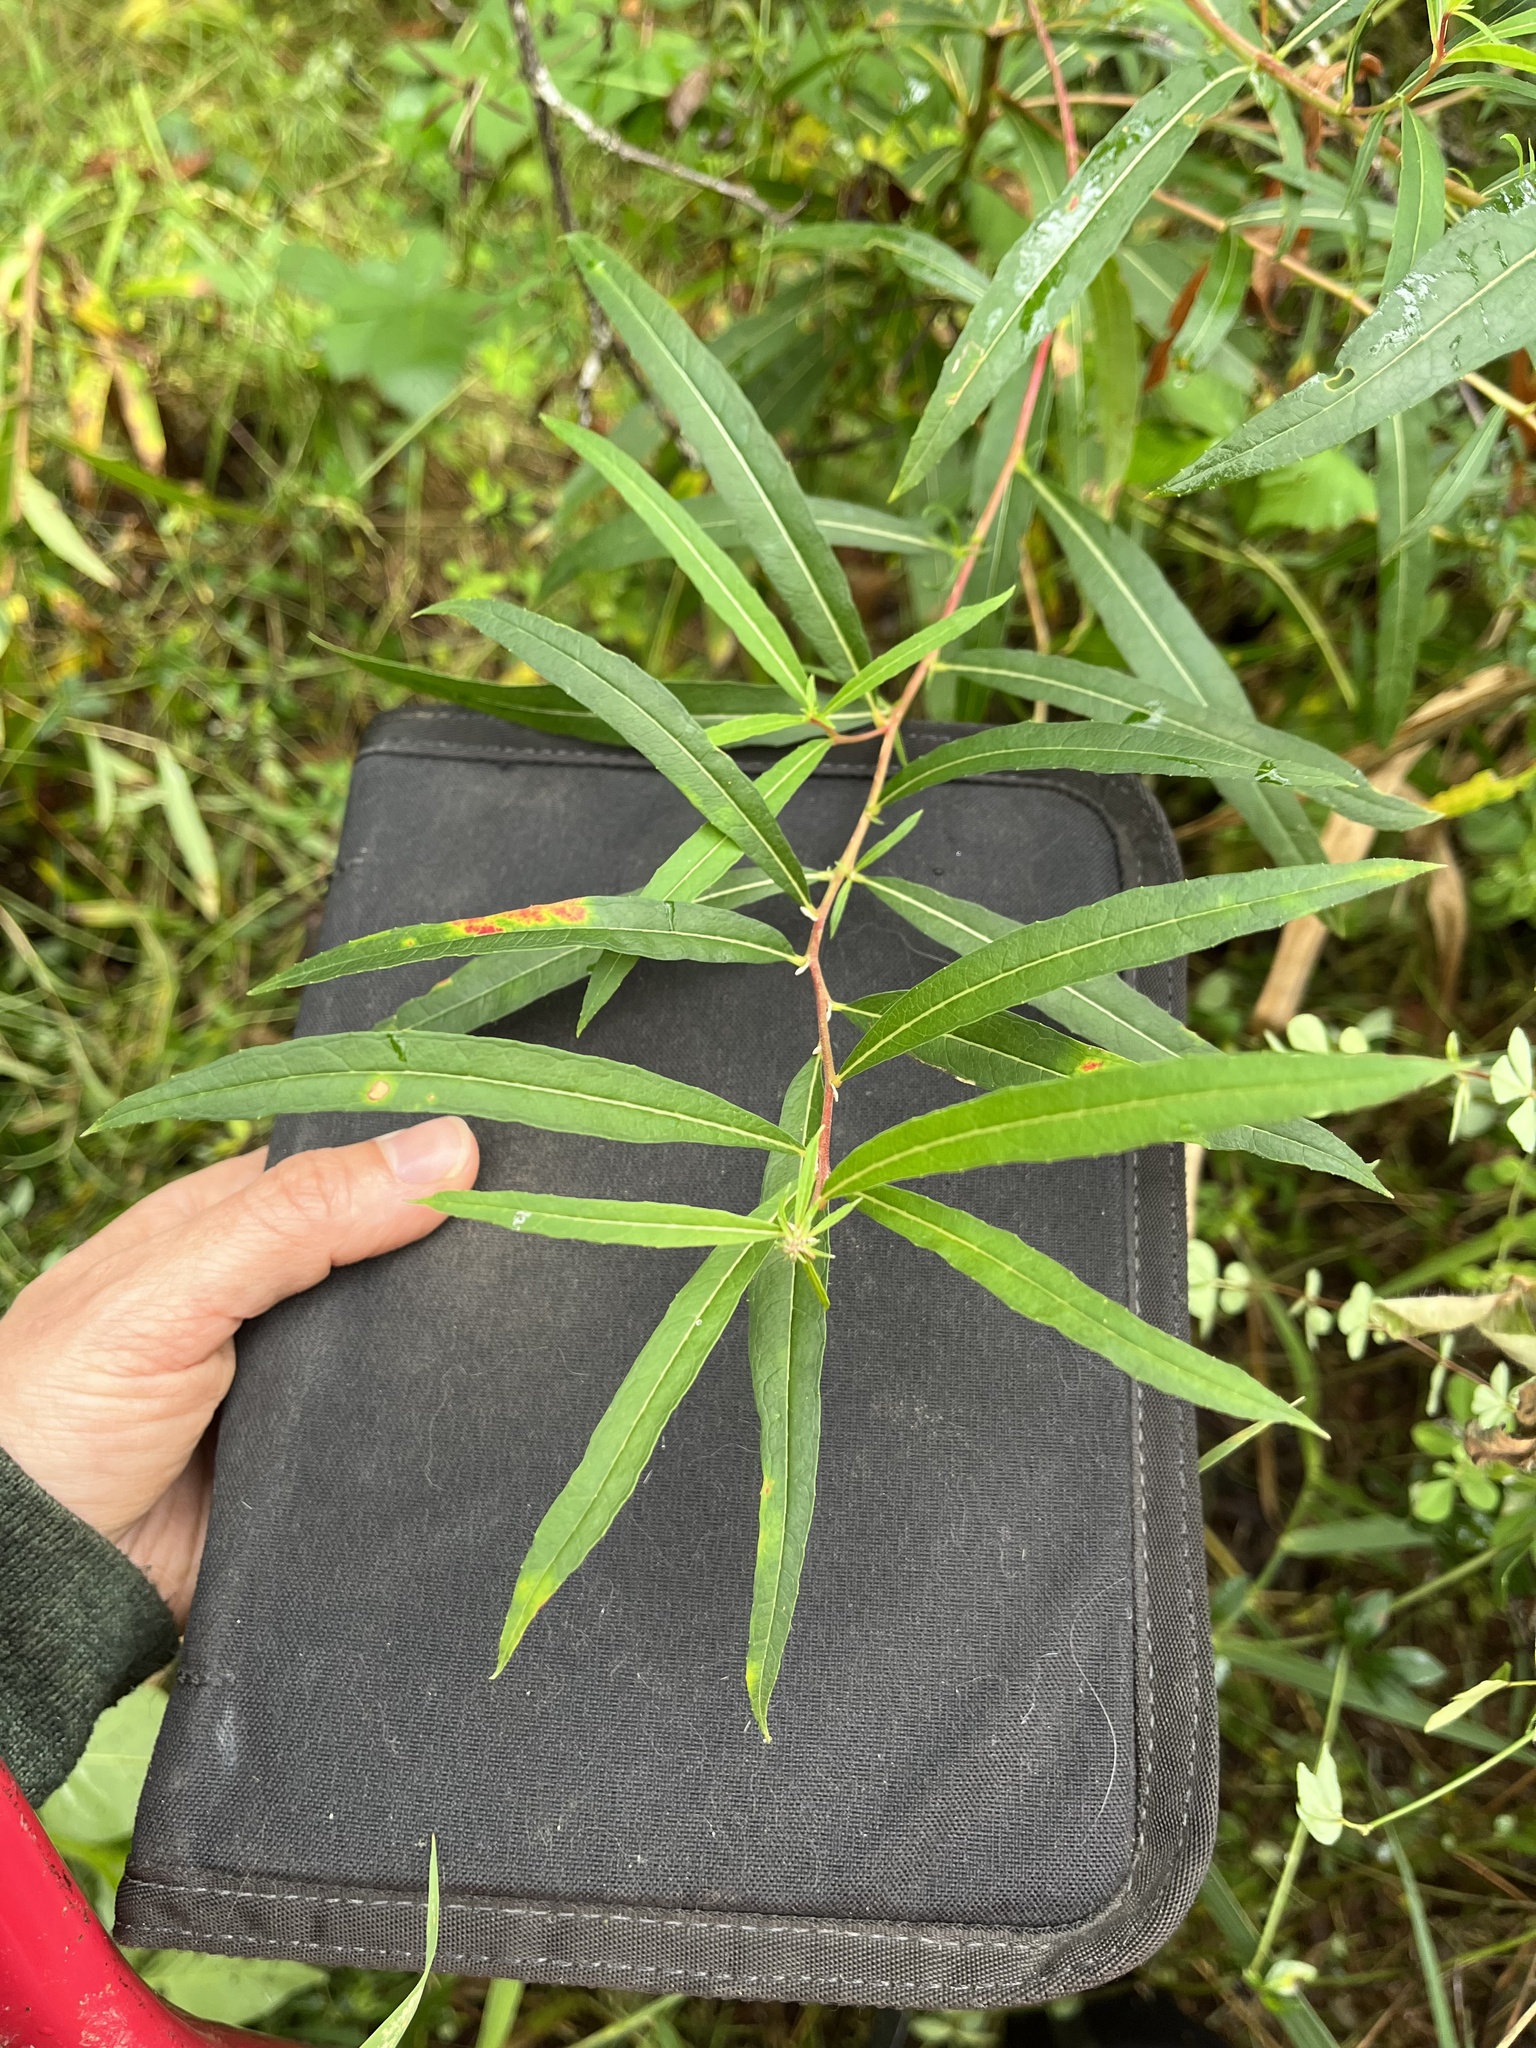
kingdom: Plantae
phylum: Tracheophyta
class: Magnoliopsida
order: Myrtales
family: Onagraceae
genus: Chamaenerion
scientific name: Chamaenerion angustifolium
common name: Fireweed
